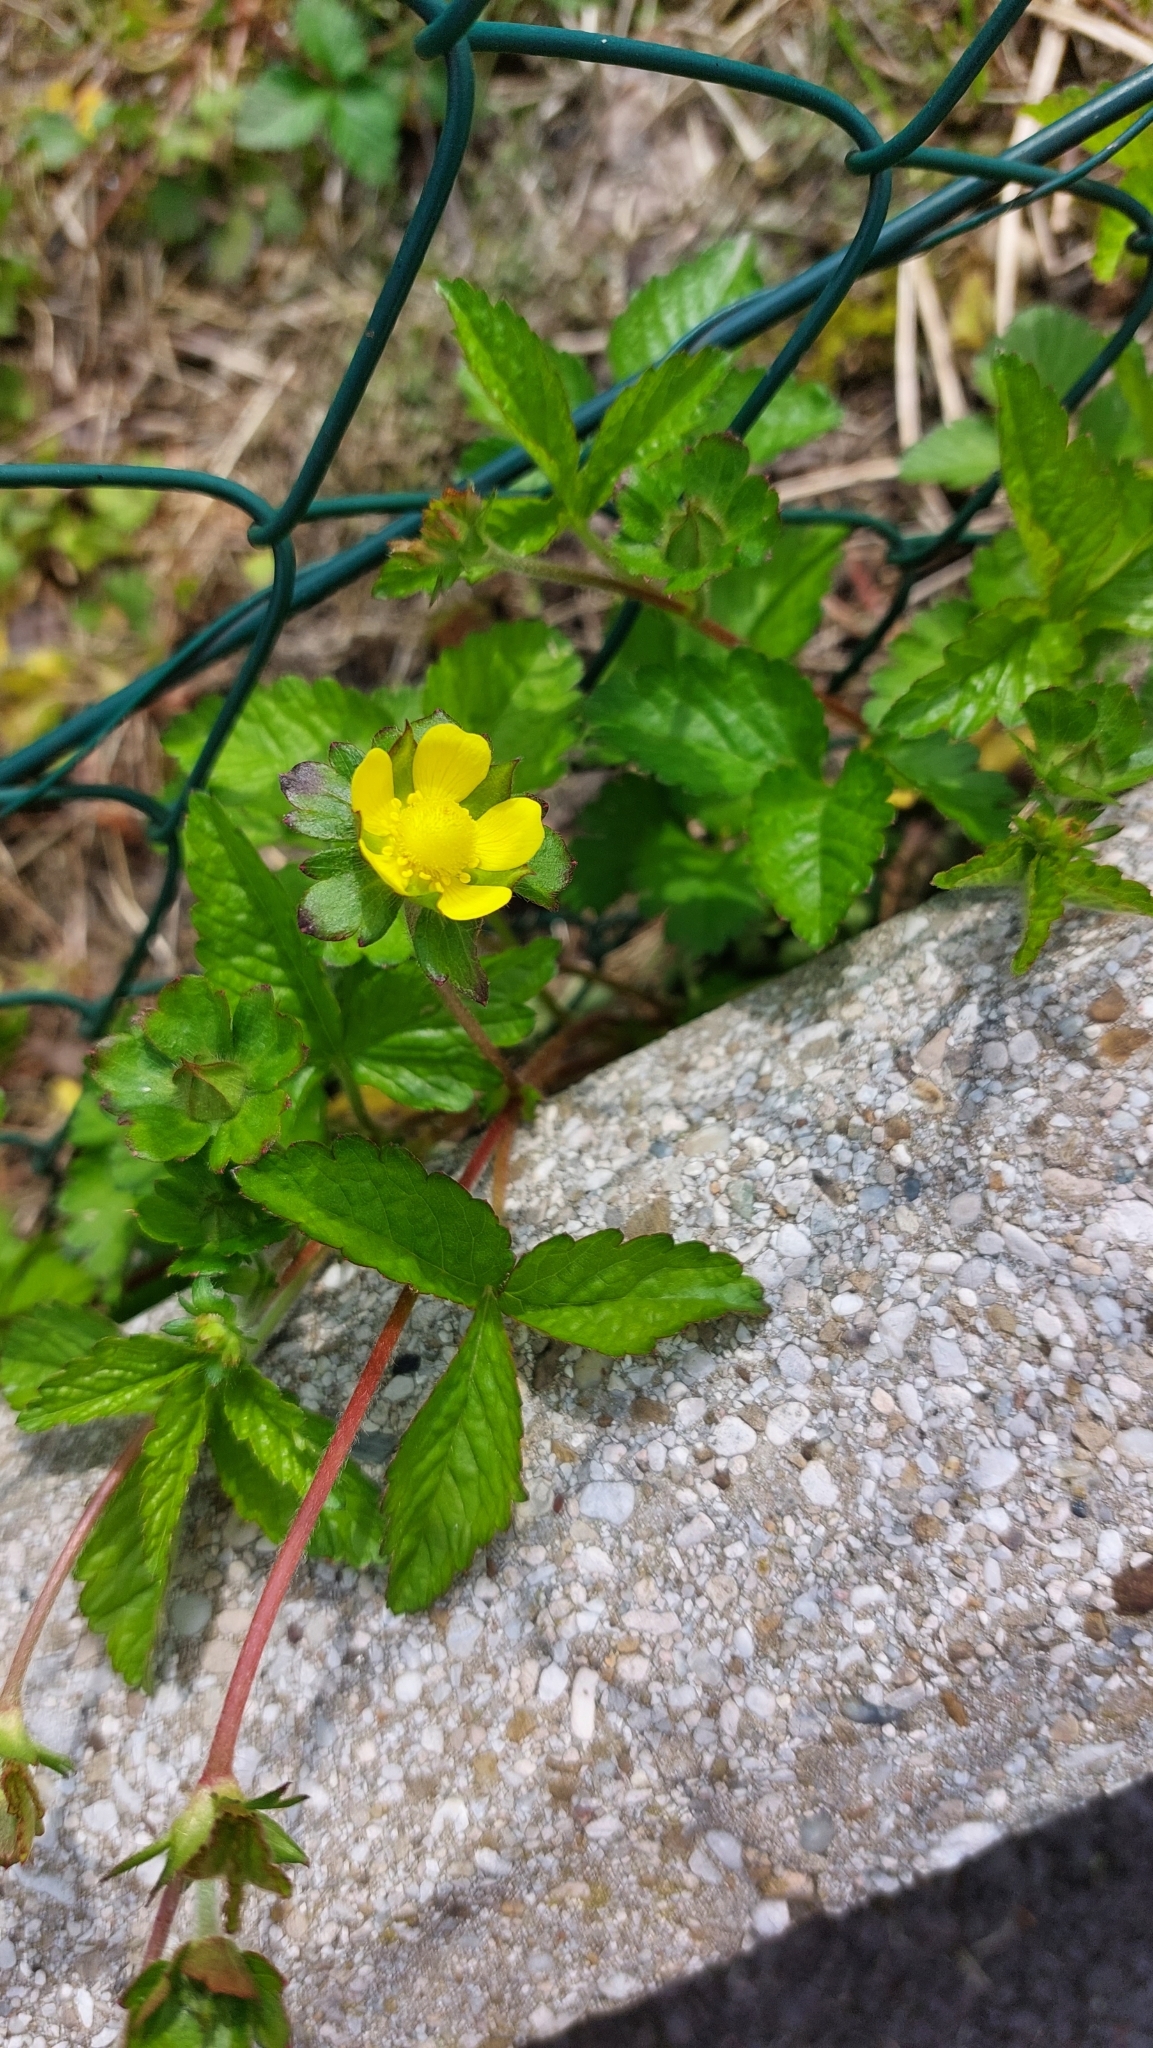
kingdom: Plantae
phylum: Tracheophyta
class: Magnoliopsida
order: Rosales
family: Rosaceae
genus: Potentilla
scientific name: Potentilla reptans
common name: Creeping cinquefoil
